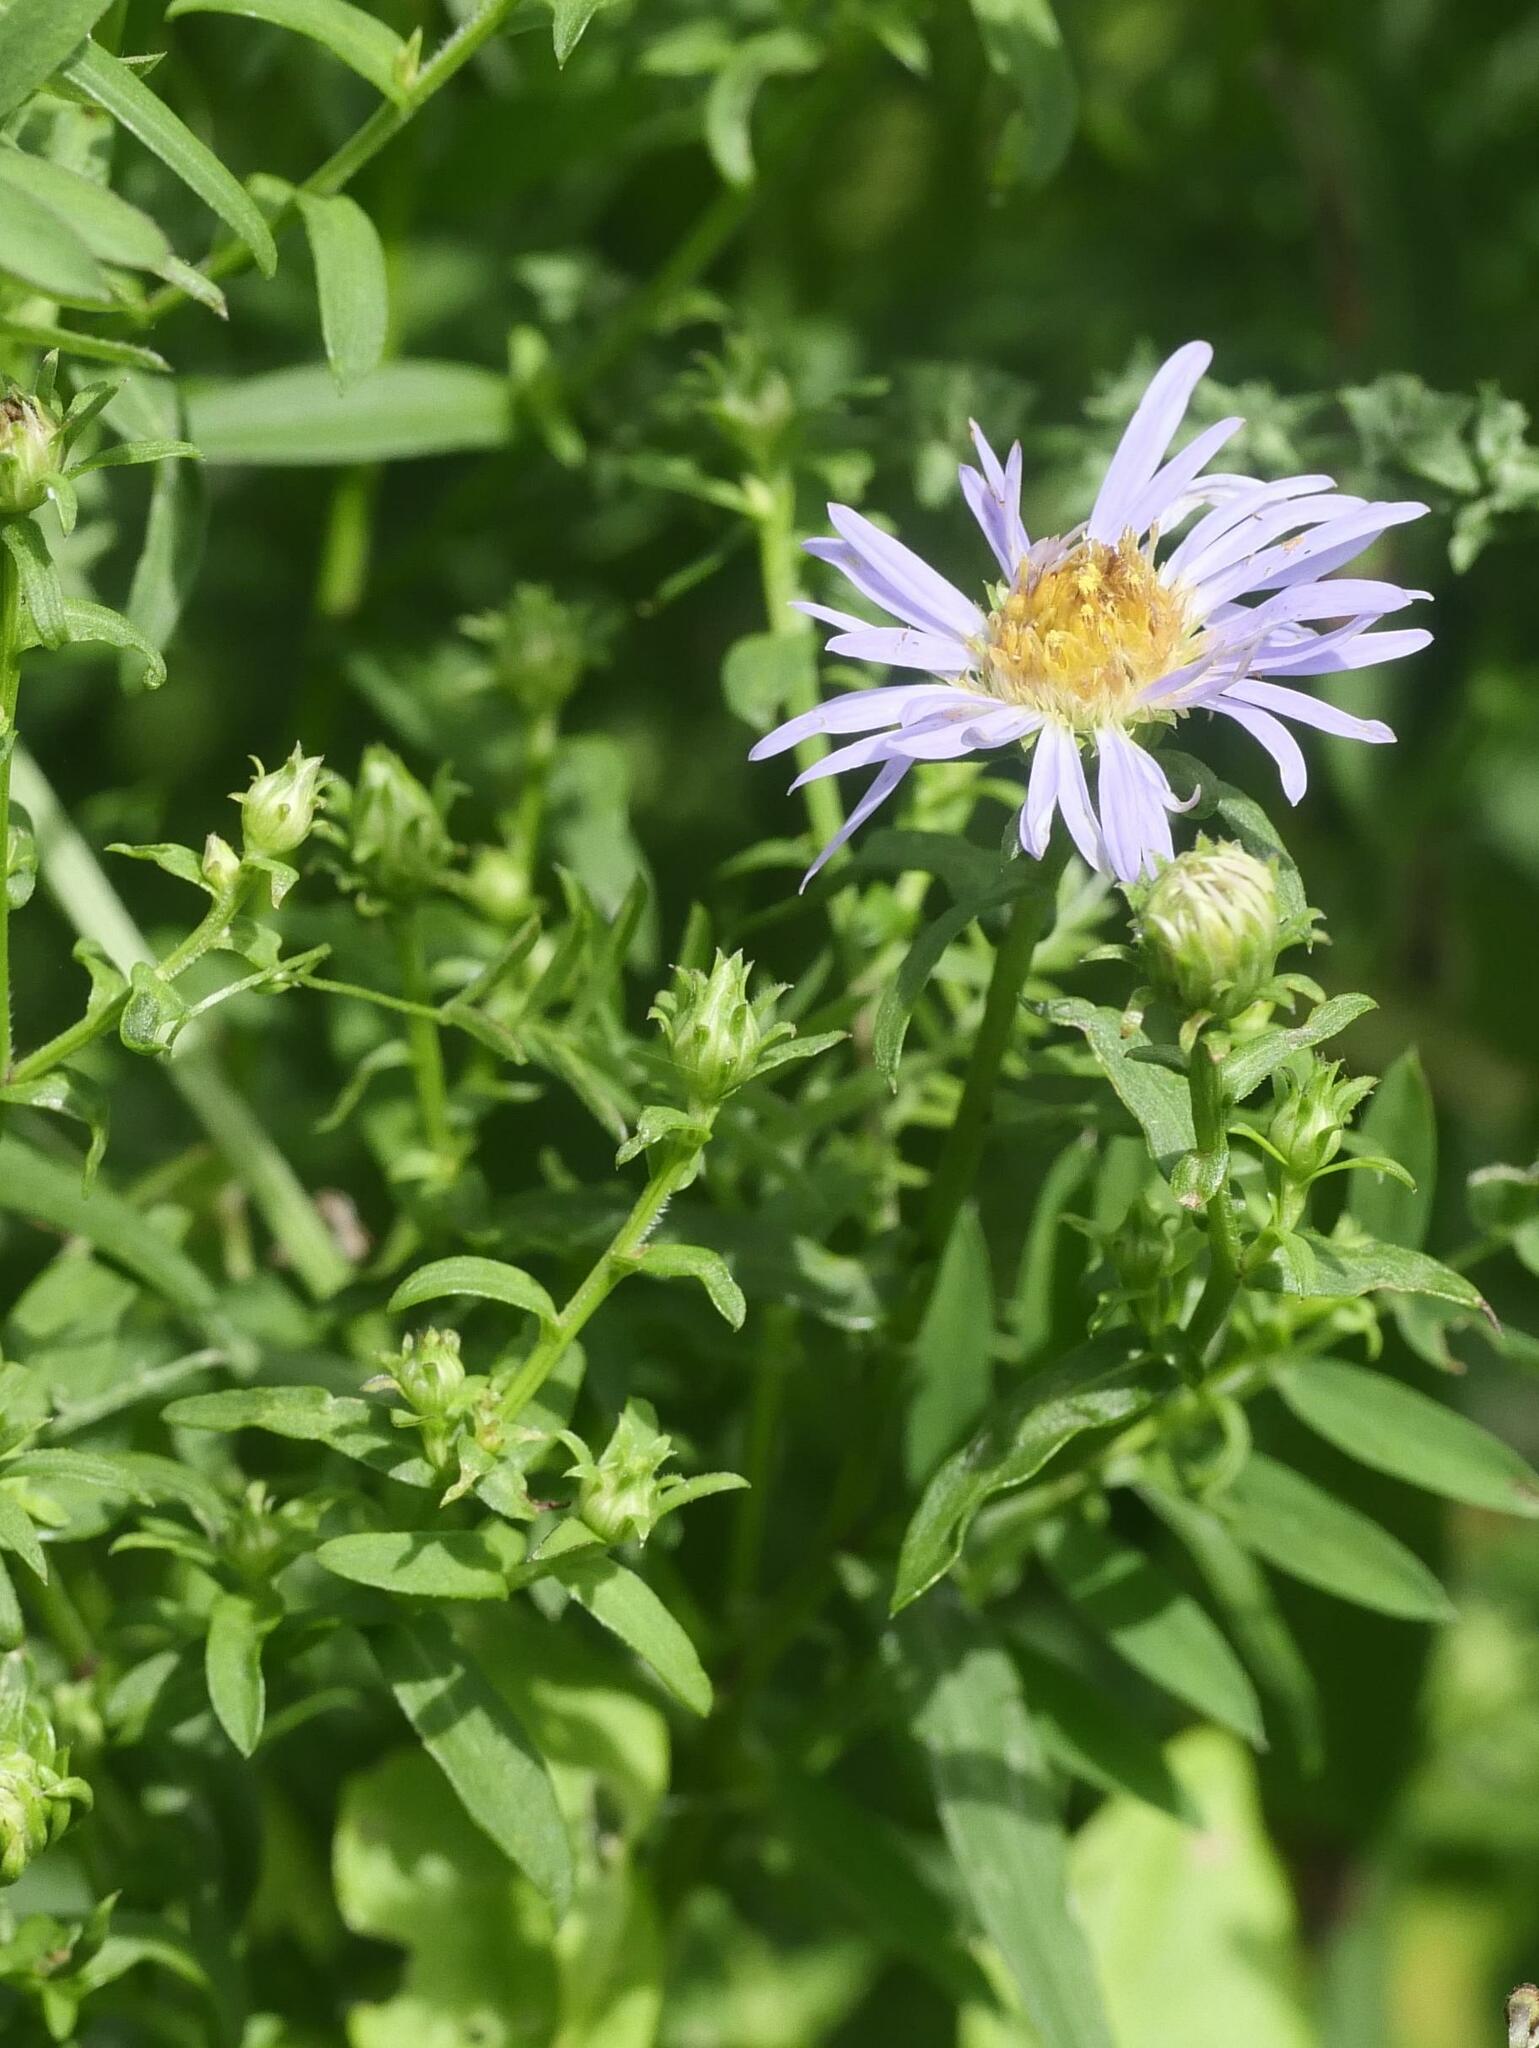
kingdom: Plantae
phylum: Tracheophyta
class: Magnoliopsida
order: Asterales
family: Asteraceae
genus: Symphyotrichum
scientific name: Symphyotrichum novi-belgii
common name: Michaelmas daisy
